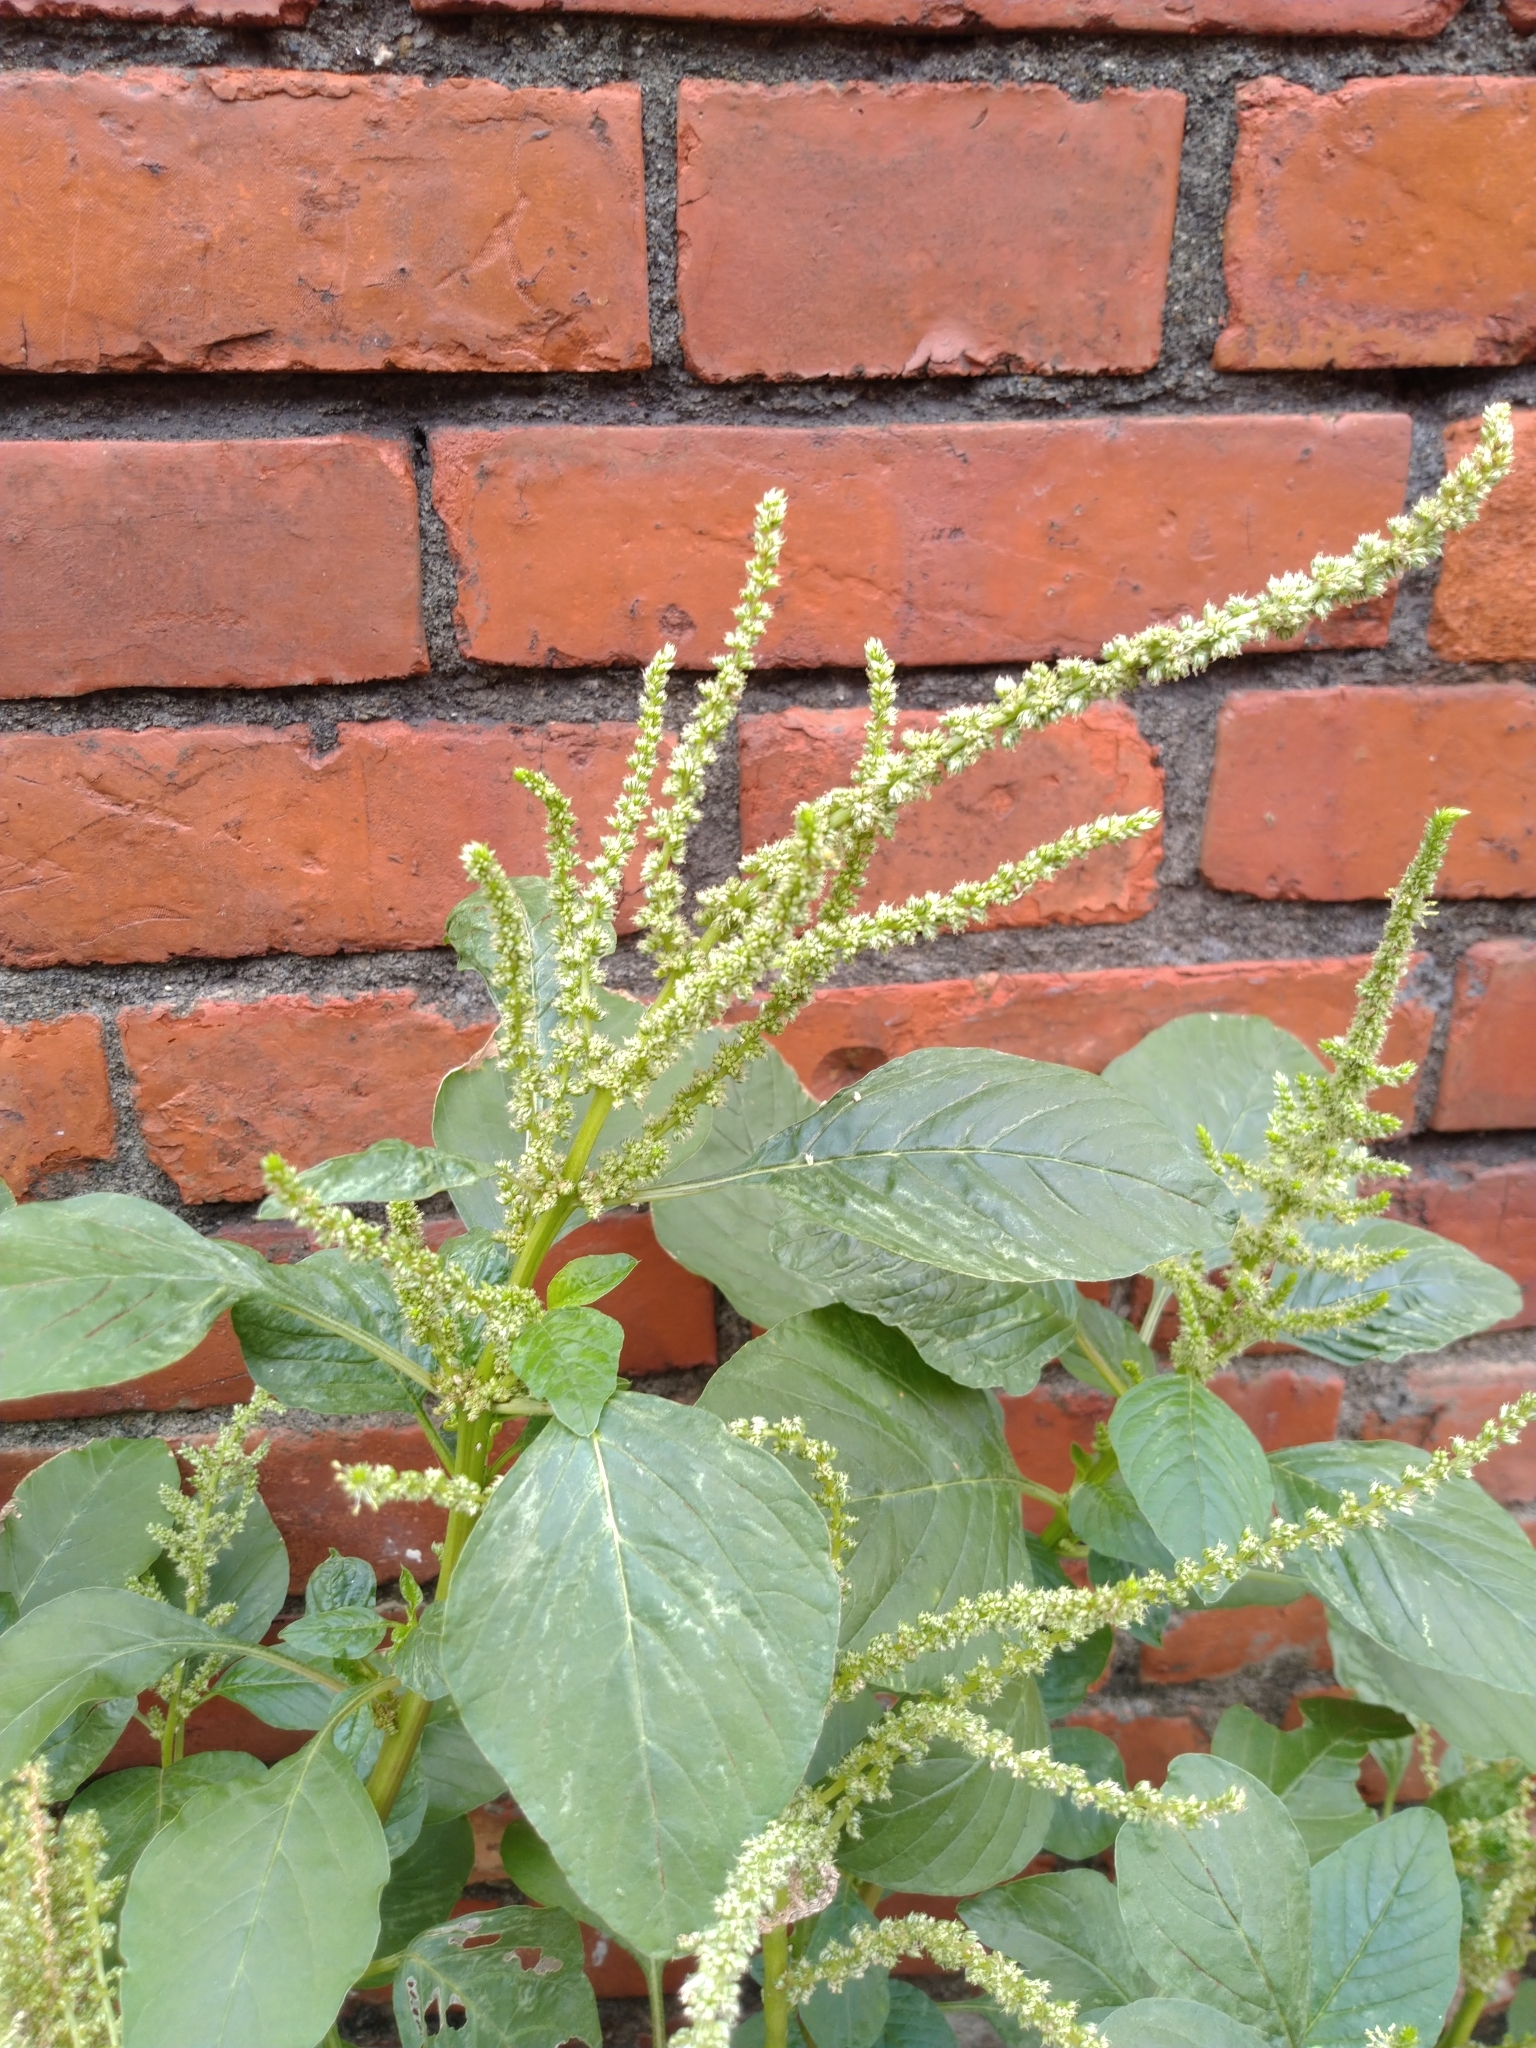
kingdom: Plantae
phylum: Tracheophyta
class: Magnoliopsida
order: Caryophyllales
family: Amaranthaceae
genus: Amaranthus
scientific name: Amaranthus viridis
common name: Slender amaranth
